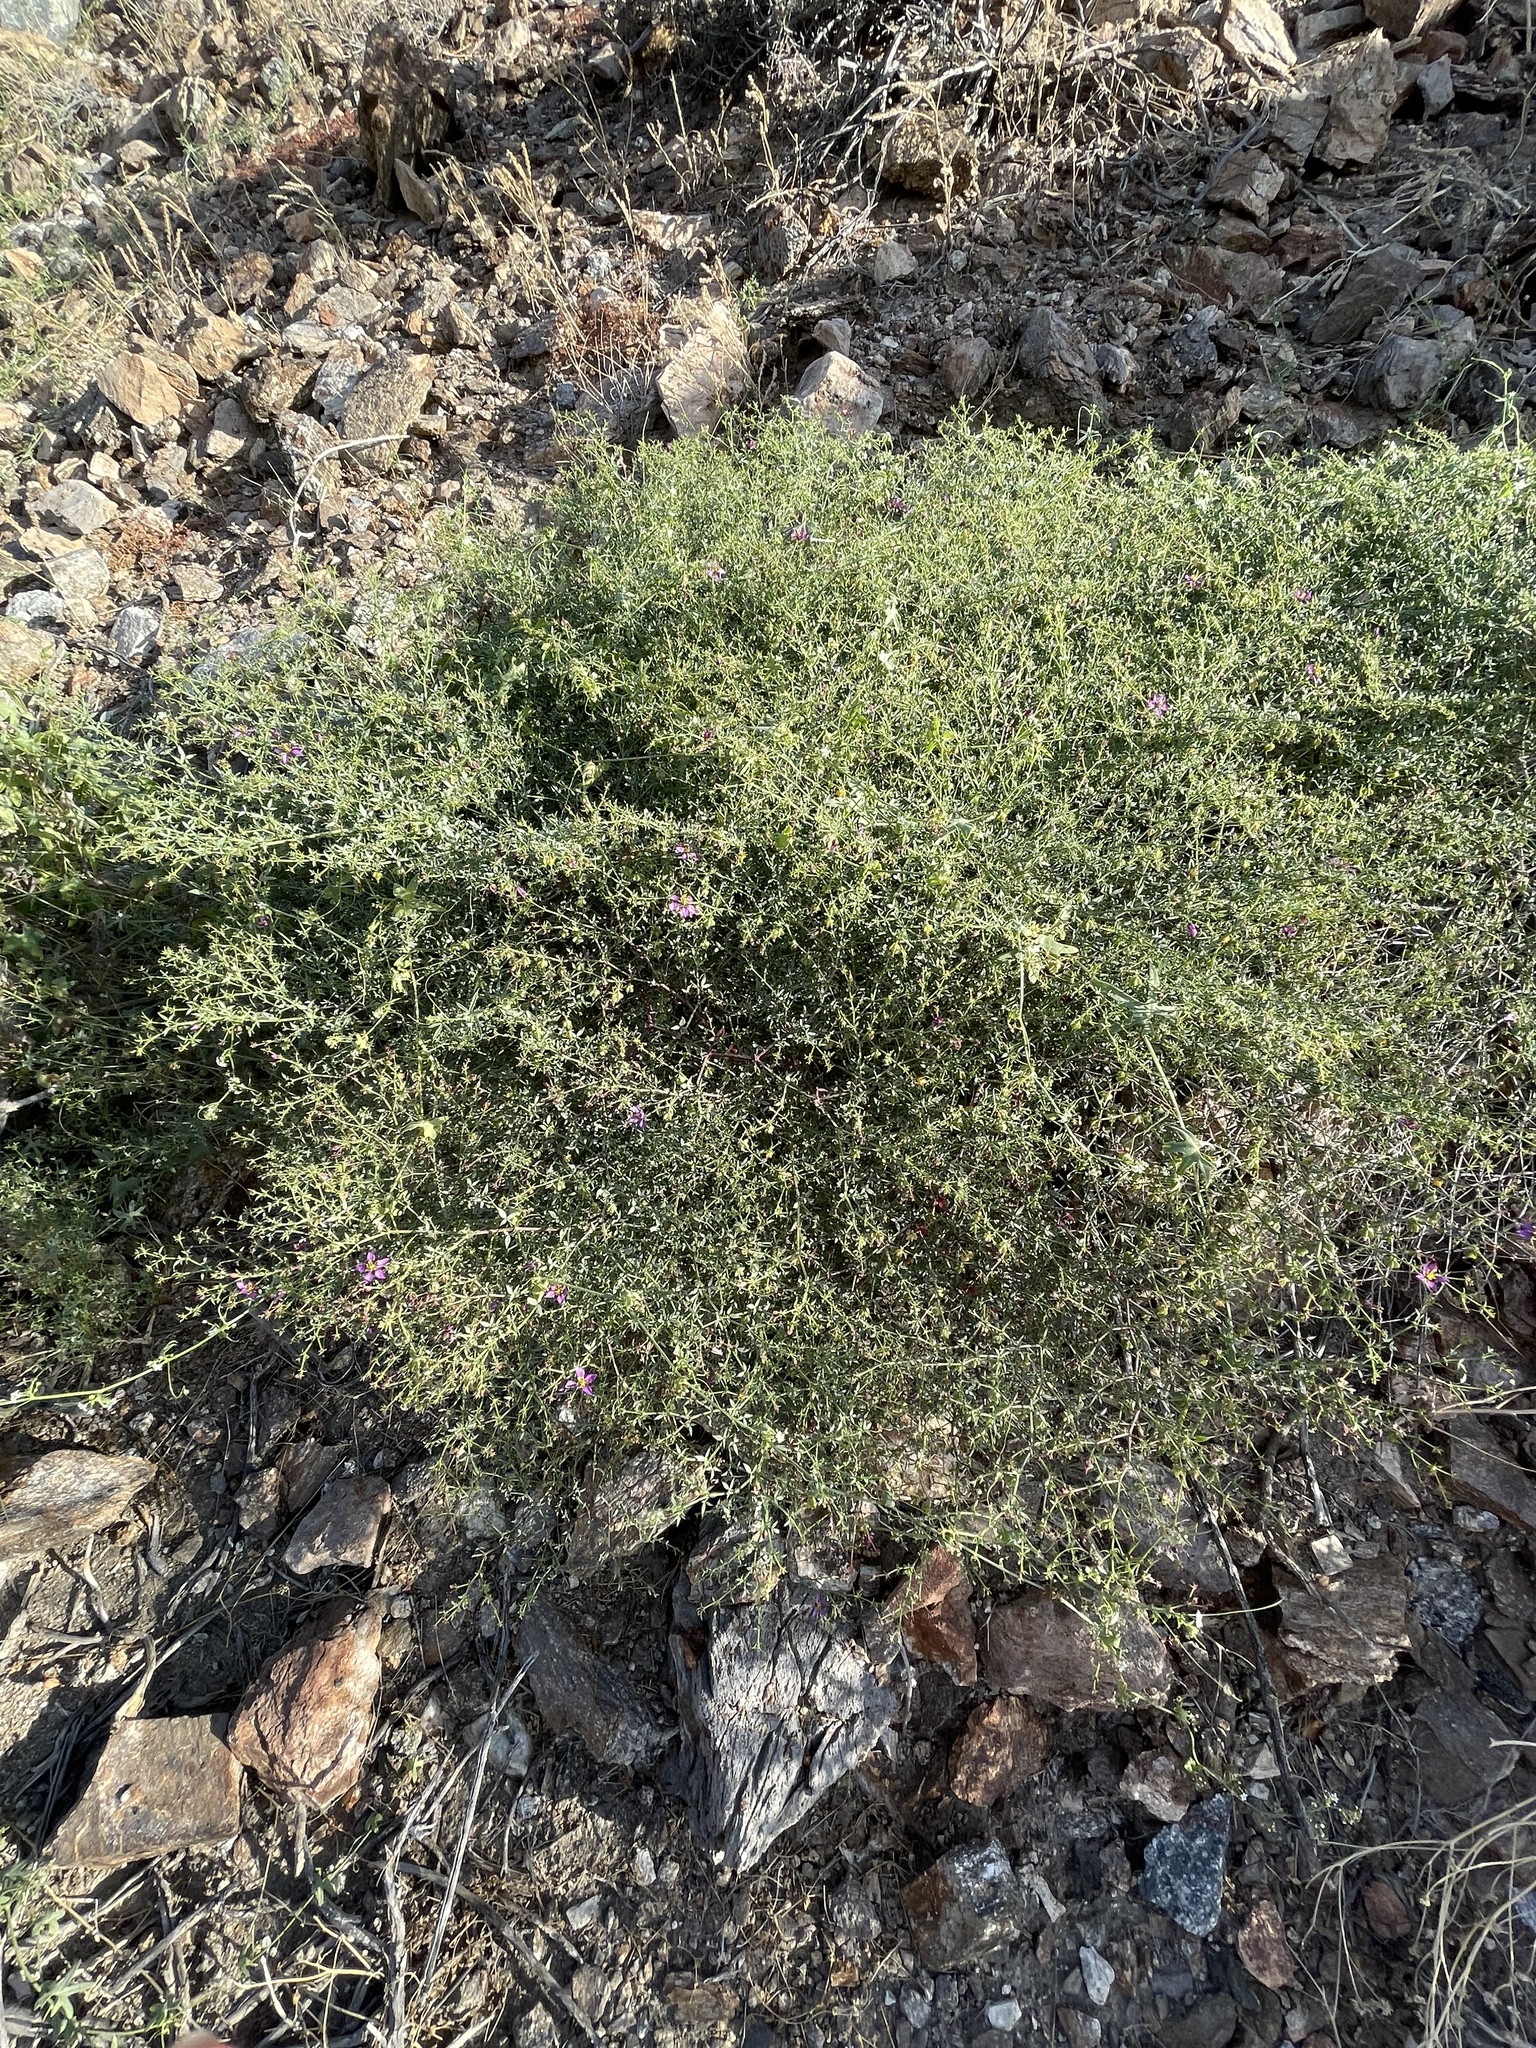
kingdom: Plantae
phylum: Tracheophyta
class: Magnoliopsida
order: Zygophyllales
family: Zygophyllaceae
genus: Fagonia
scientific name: Fagonia laevis
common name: California fagonbush
